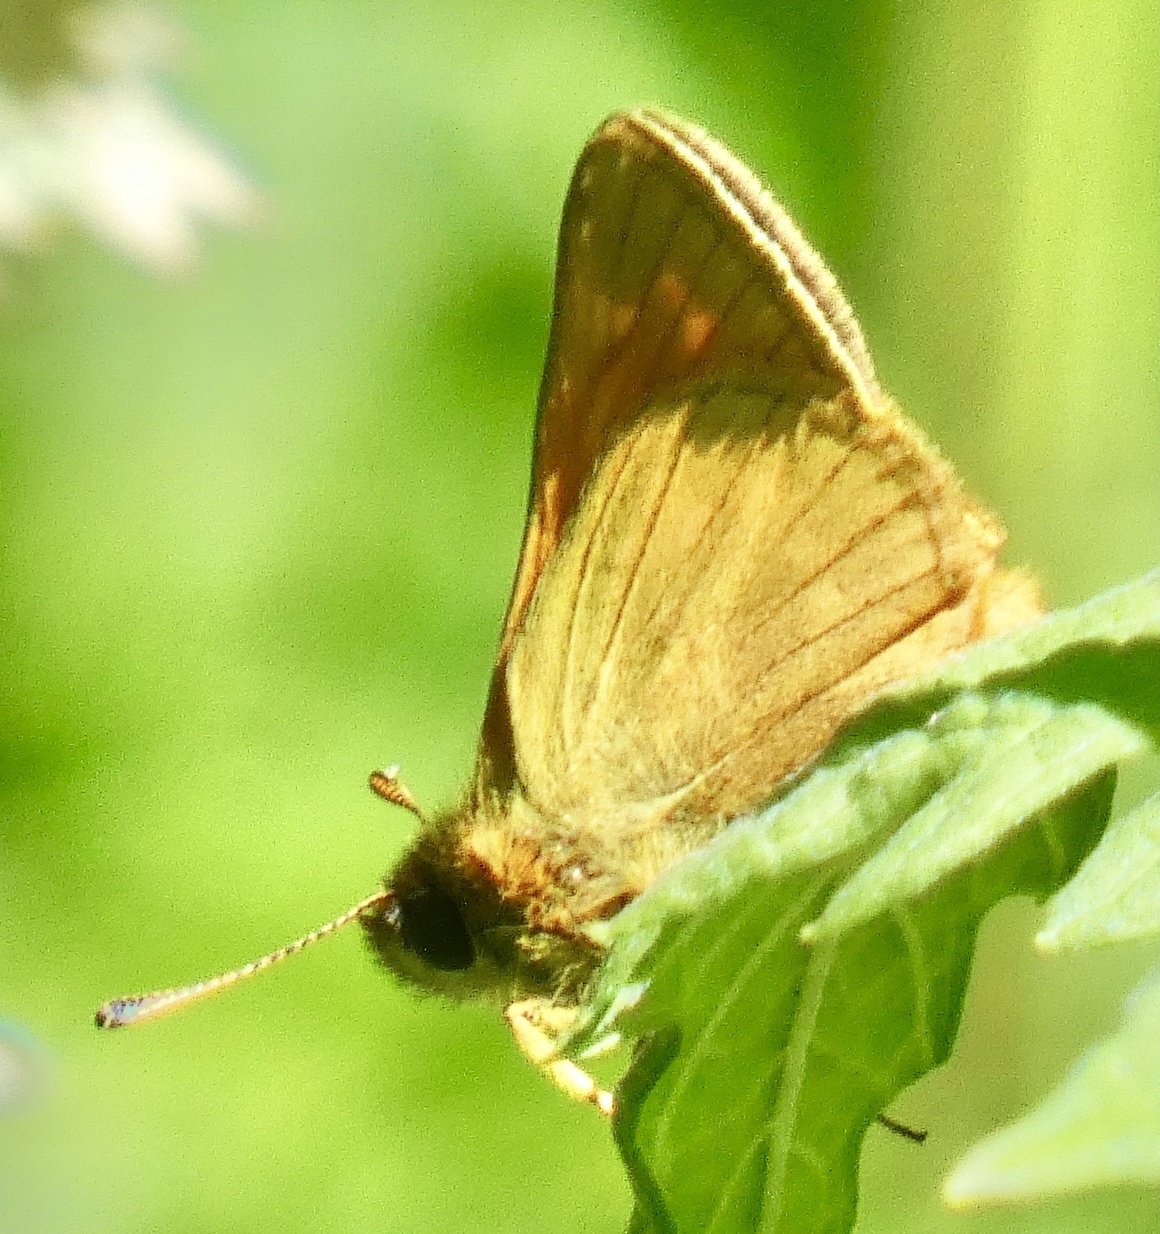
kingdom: Animalia
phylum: Arthropoda
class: Insecta
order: Lepidoptera
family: Hesperiidae
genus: Ochlodes
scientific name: Ochlodes venata
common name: Large skipper
